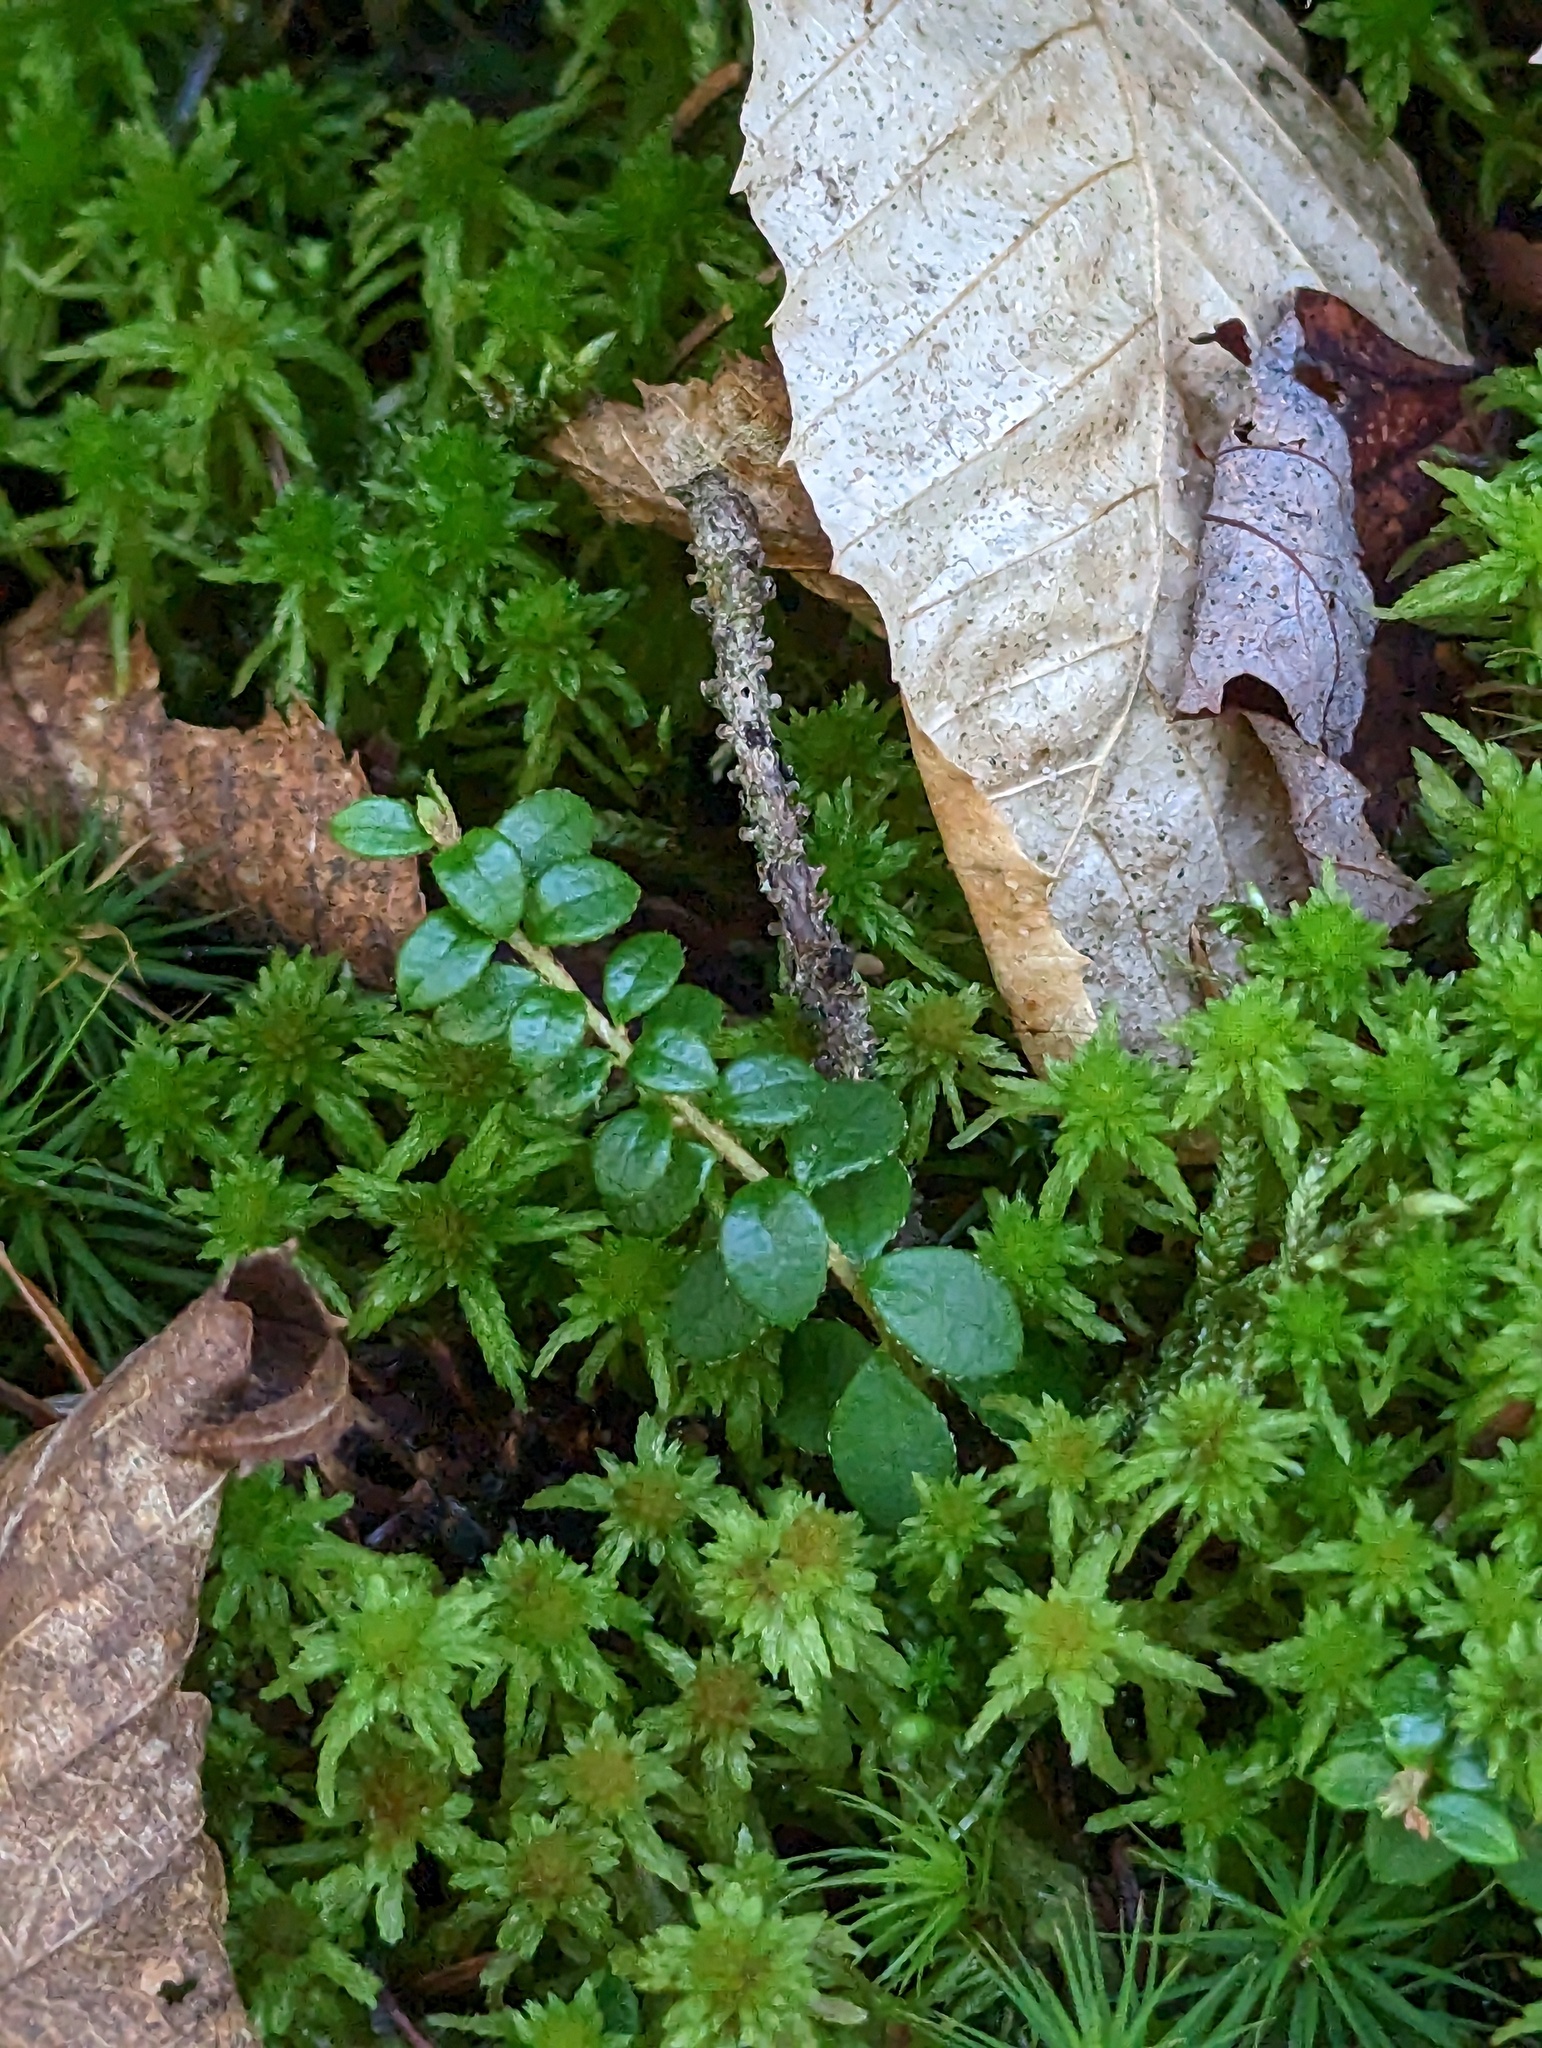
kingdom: Plantae
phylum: Tracheophyta
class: Magnoliopsida
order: Ericales
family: Ericaceae
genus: Gaultheria
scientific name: Gaultheria hispidula
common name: Cancer wintergreen
